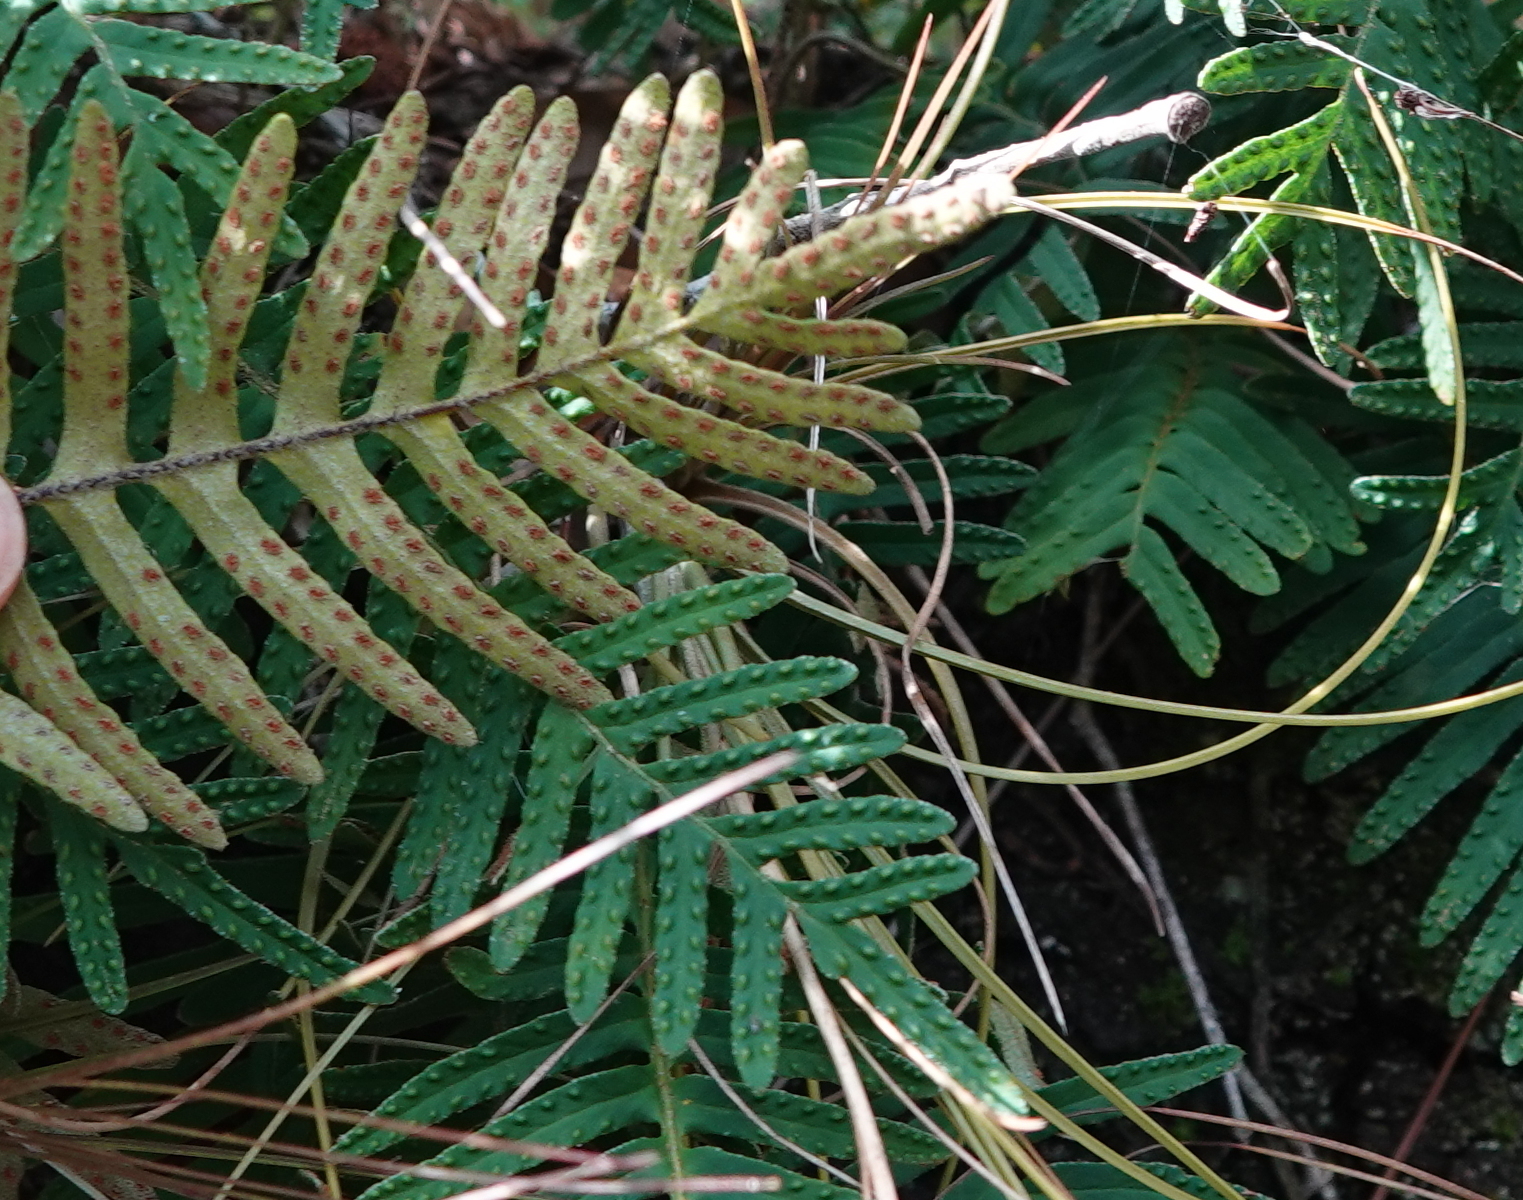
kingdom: Plantae
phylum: Tracheophyta
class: Polypodiopsida
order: Polypodiales
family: Polypodiaceae
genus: Pleopeltis
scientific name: Pleopeltis michauxiana
